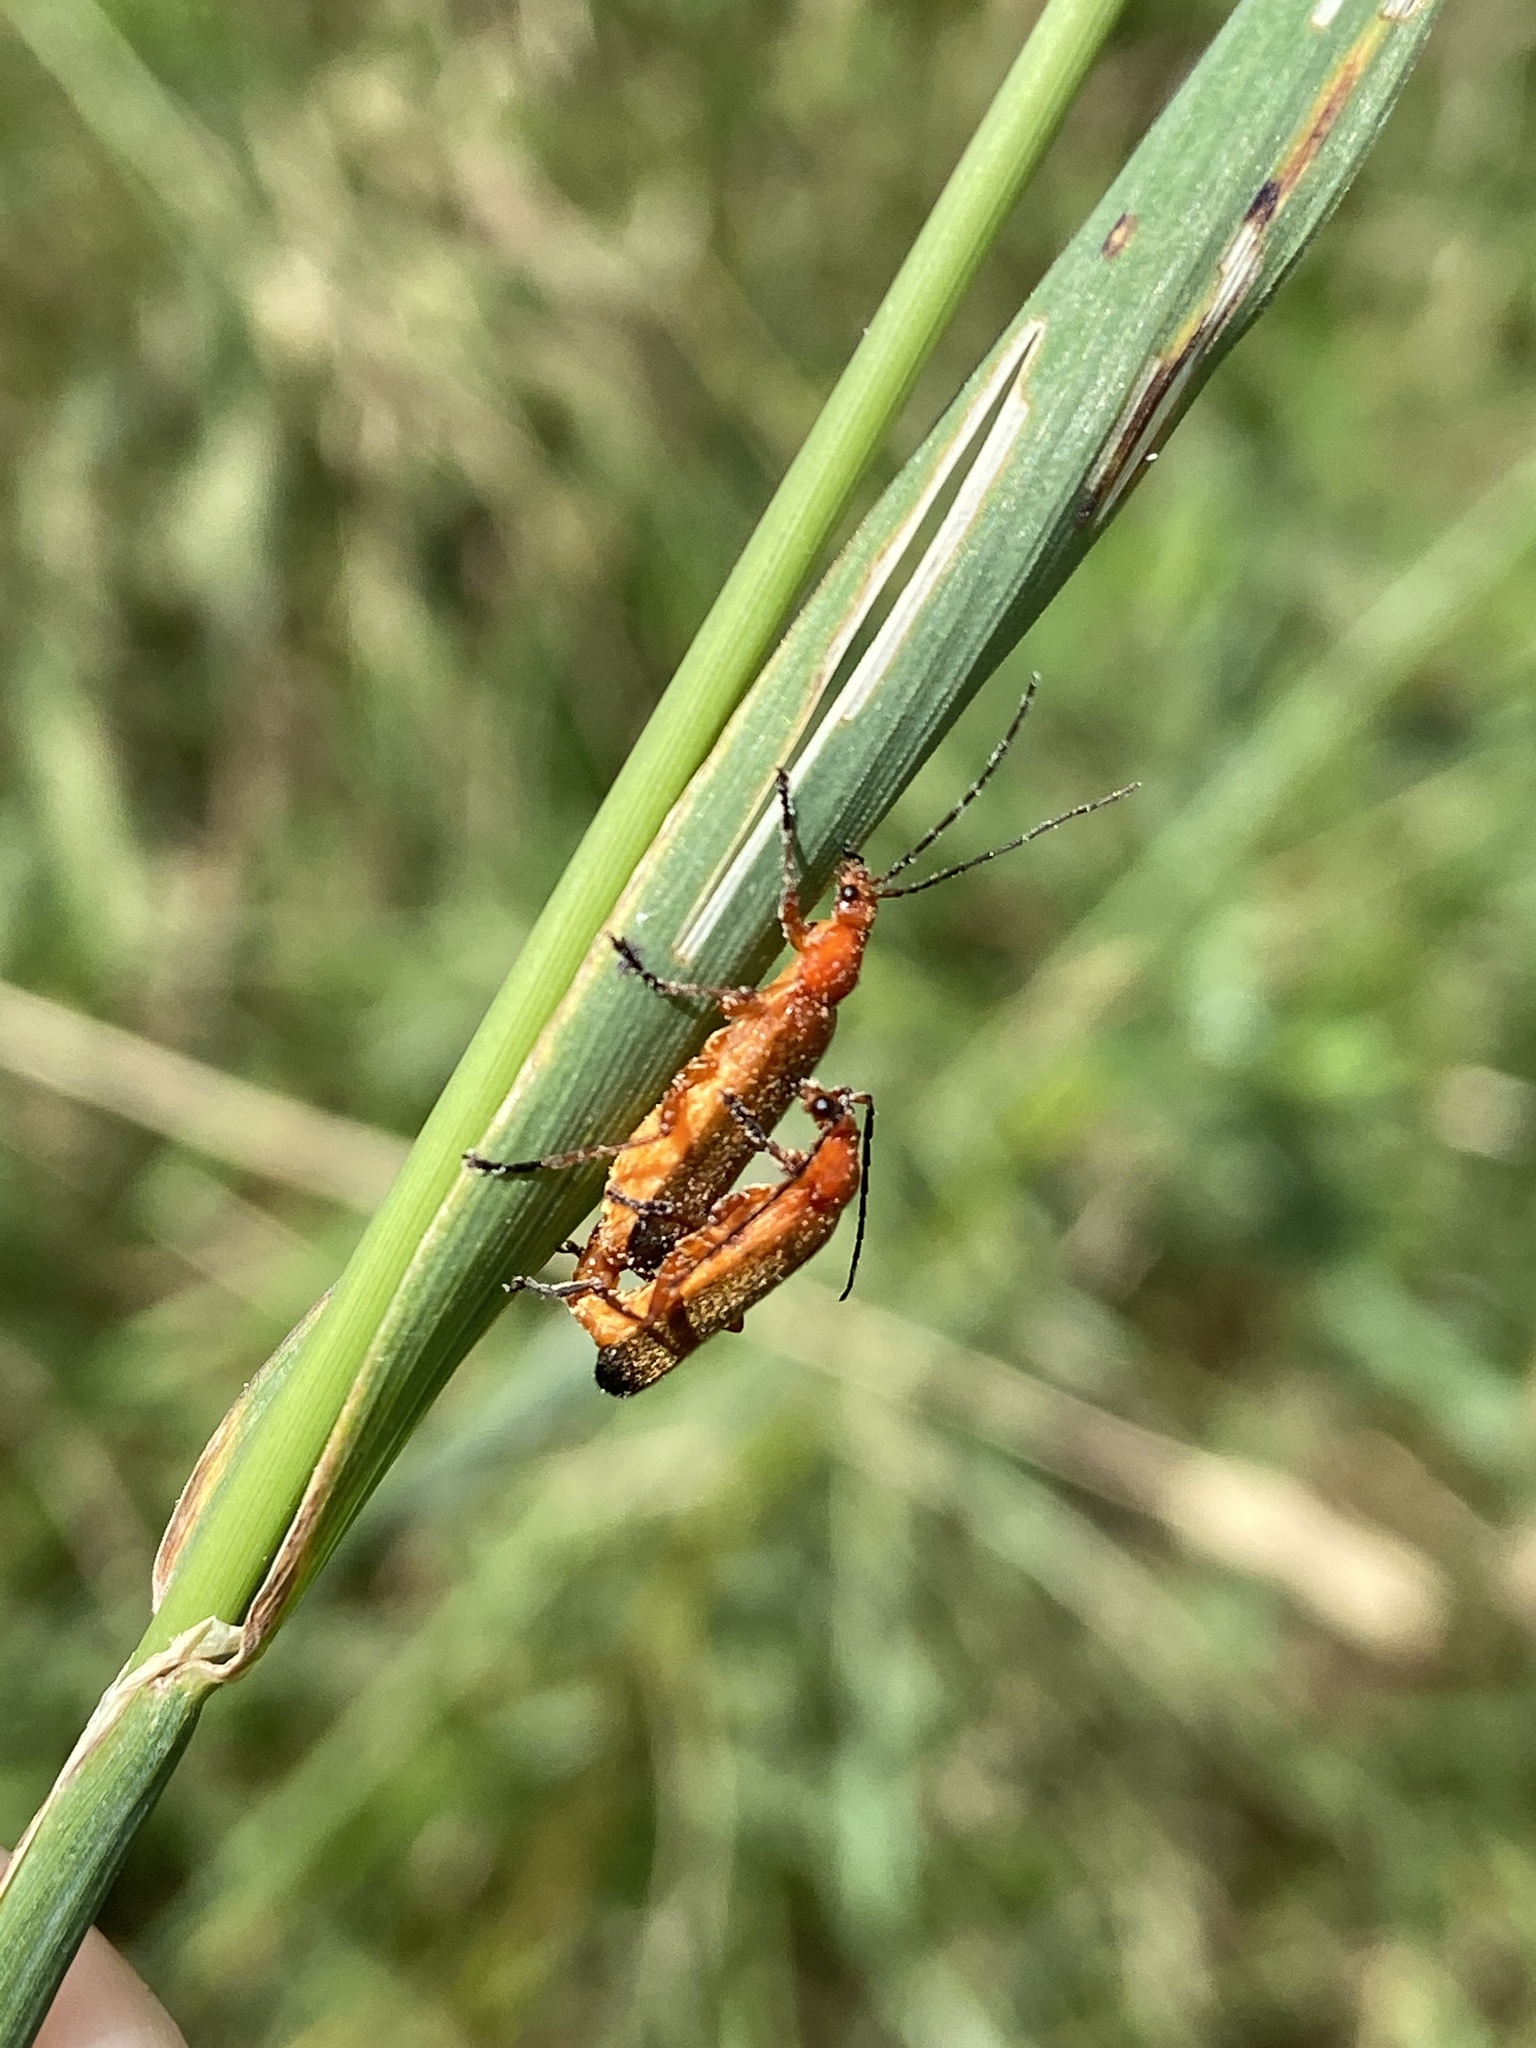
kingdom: Animalia
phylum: Arthropoda
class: Insecta
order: Coleoptera
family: Cantharidae
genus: Rhagonycha
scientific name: Rhagonycha fulva
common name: Common red soldier beetle
